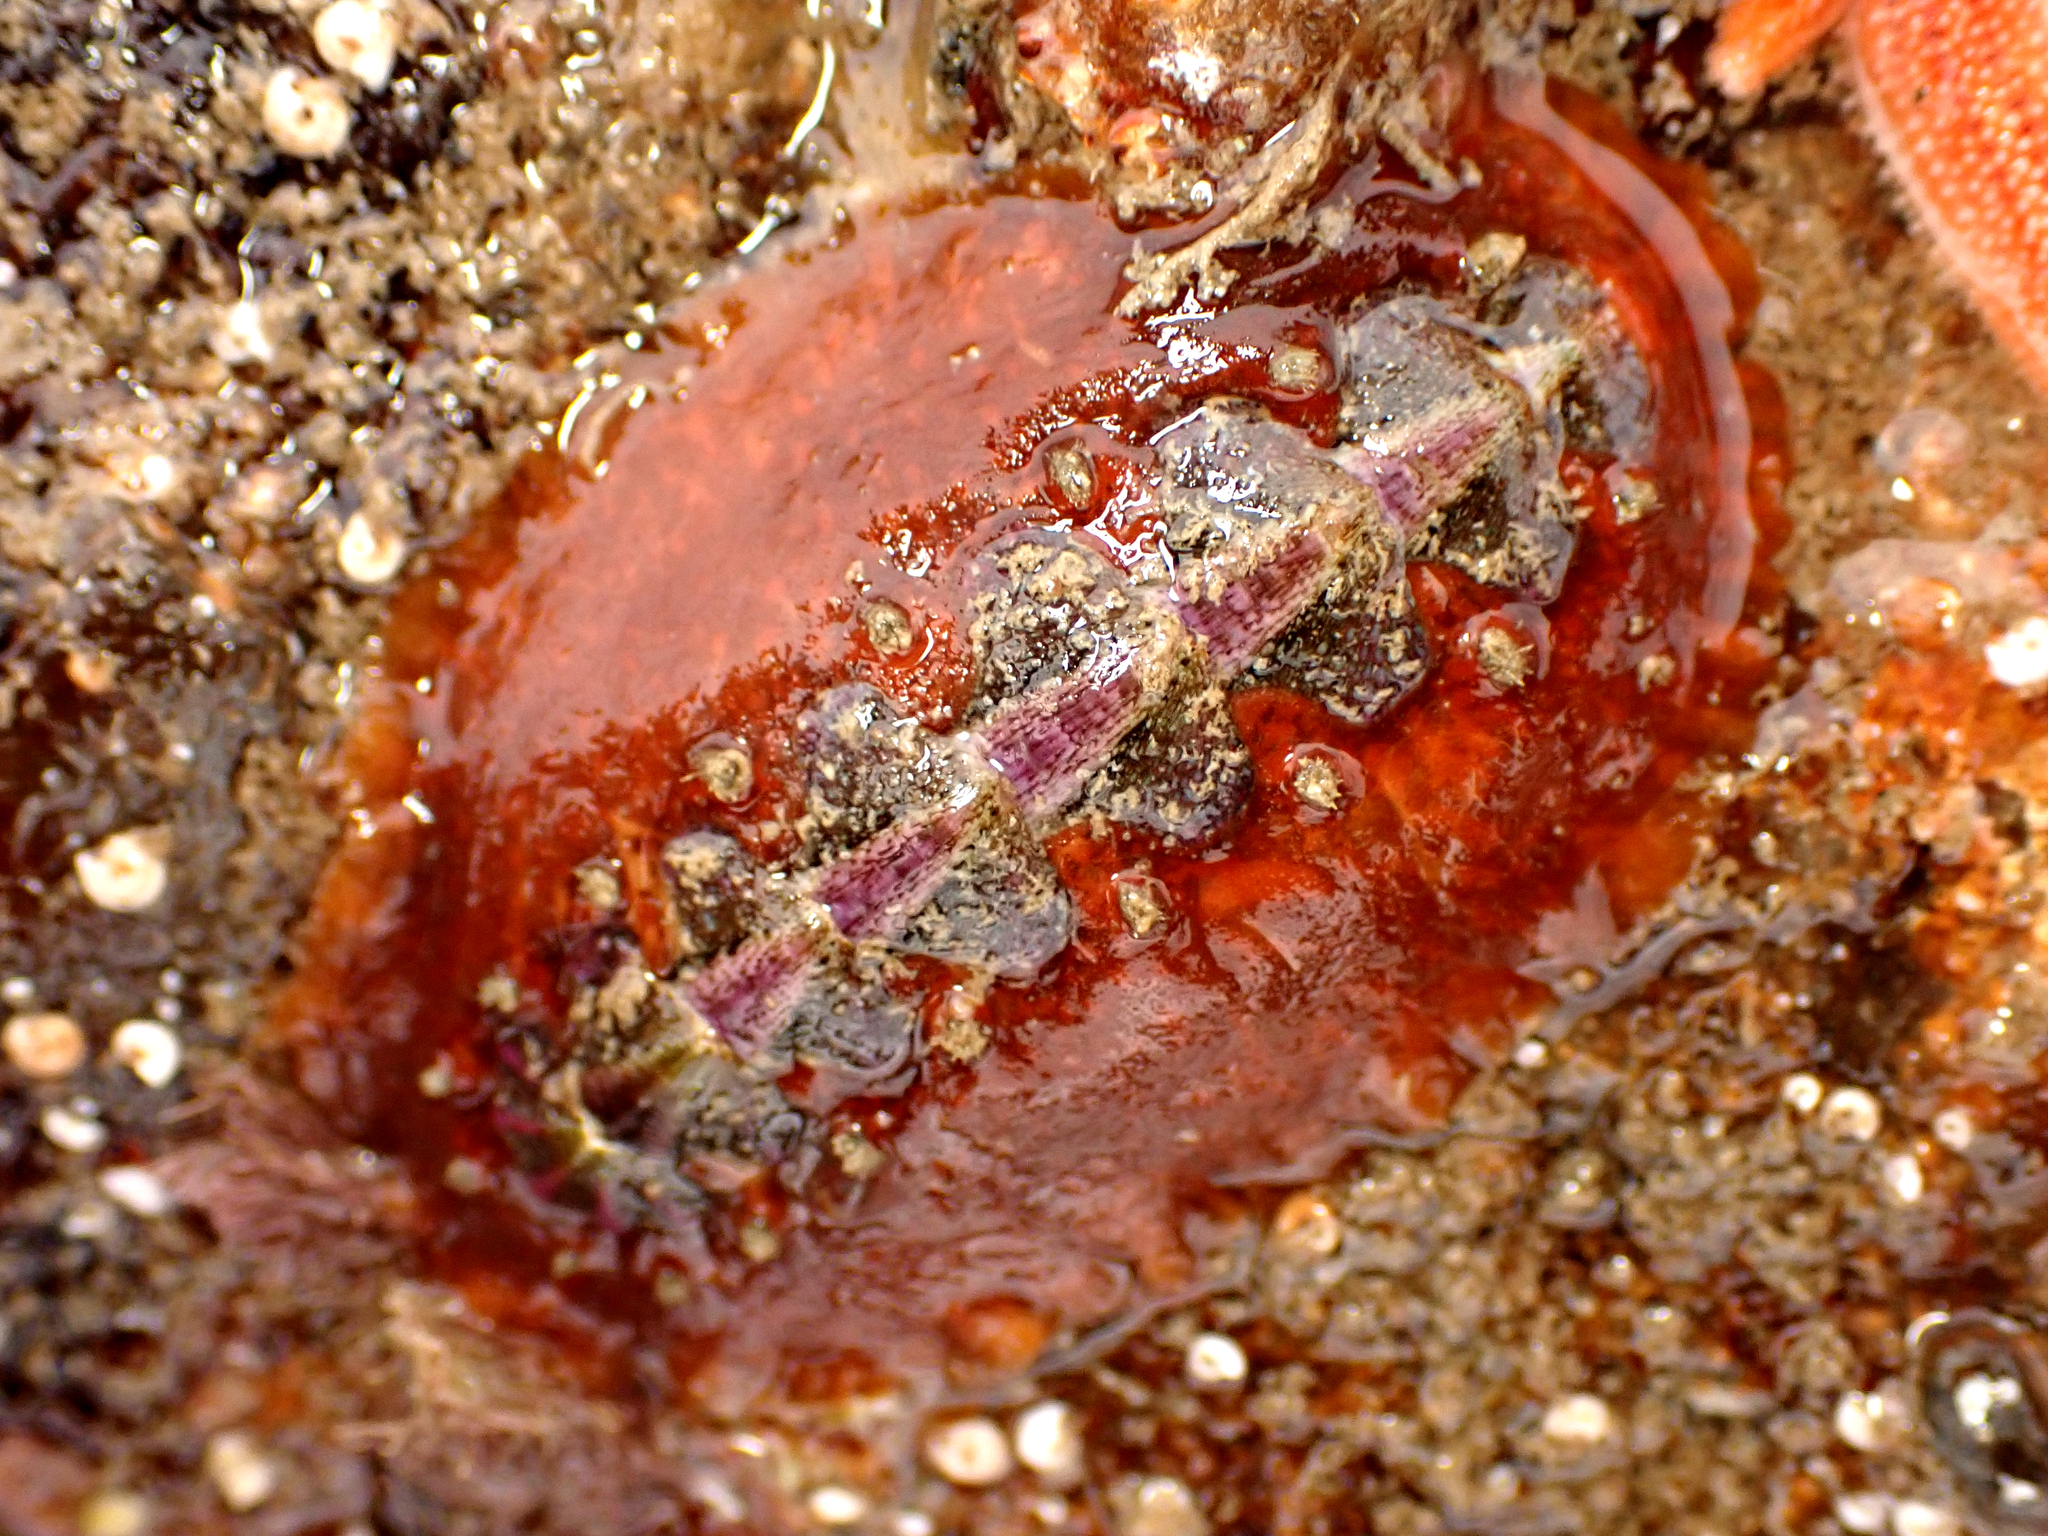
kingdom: Animalia
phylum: Mollusca
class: Polyplacophora
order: Chitonida
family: Acanthochitonidae
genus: Notoplax
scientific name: Notoplax violacea
